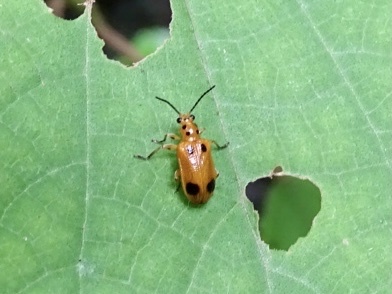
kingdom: Animalia
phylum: Arthropoda
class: Insecta
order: Coleoptera
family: Chrysomelidae
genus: Lema
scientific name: Lema
